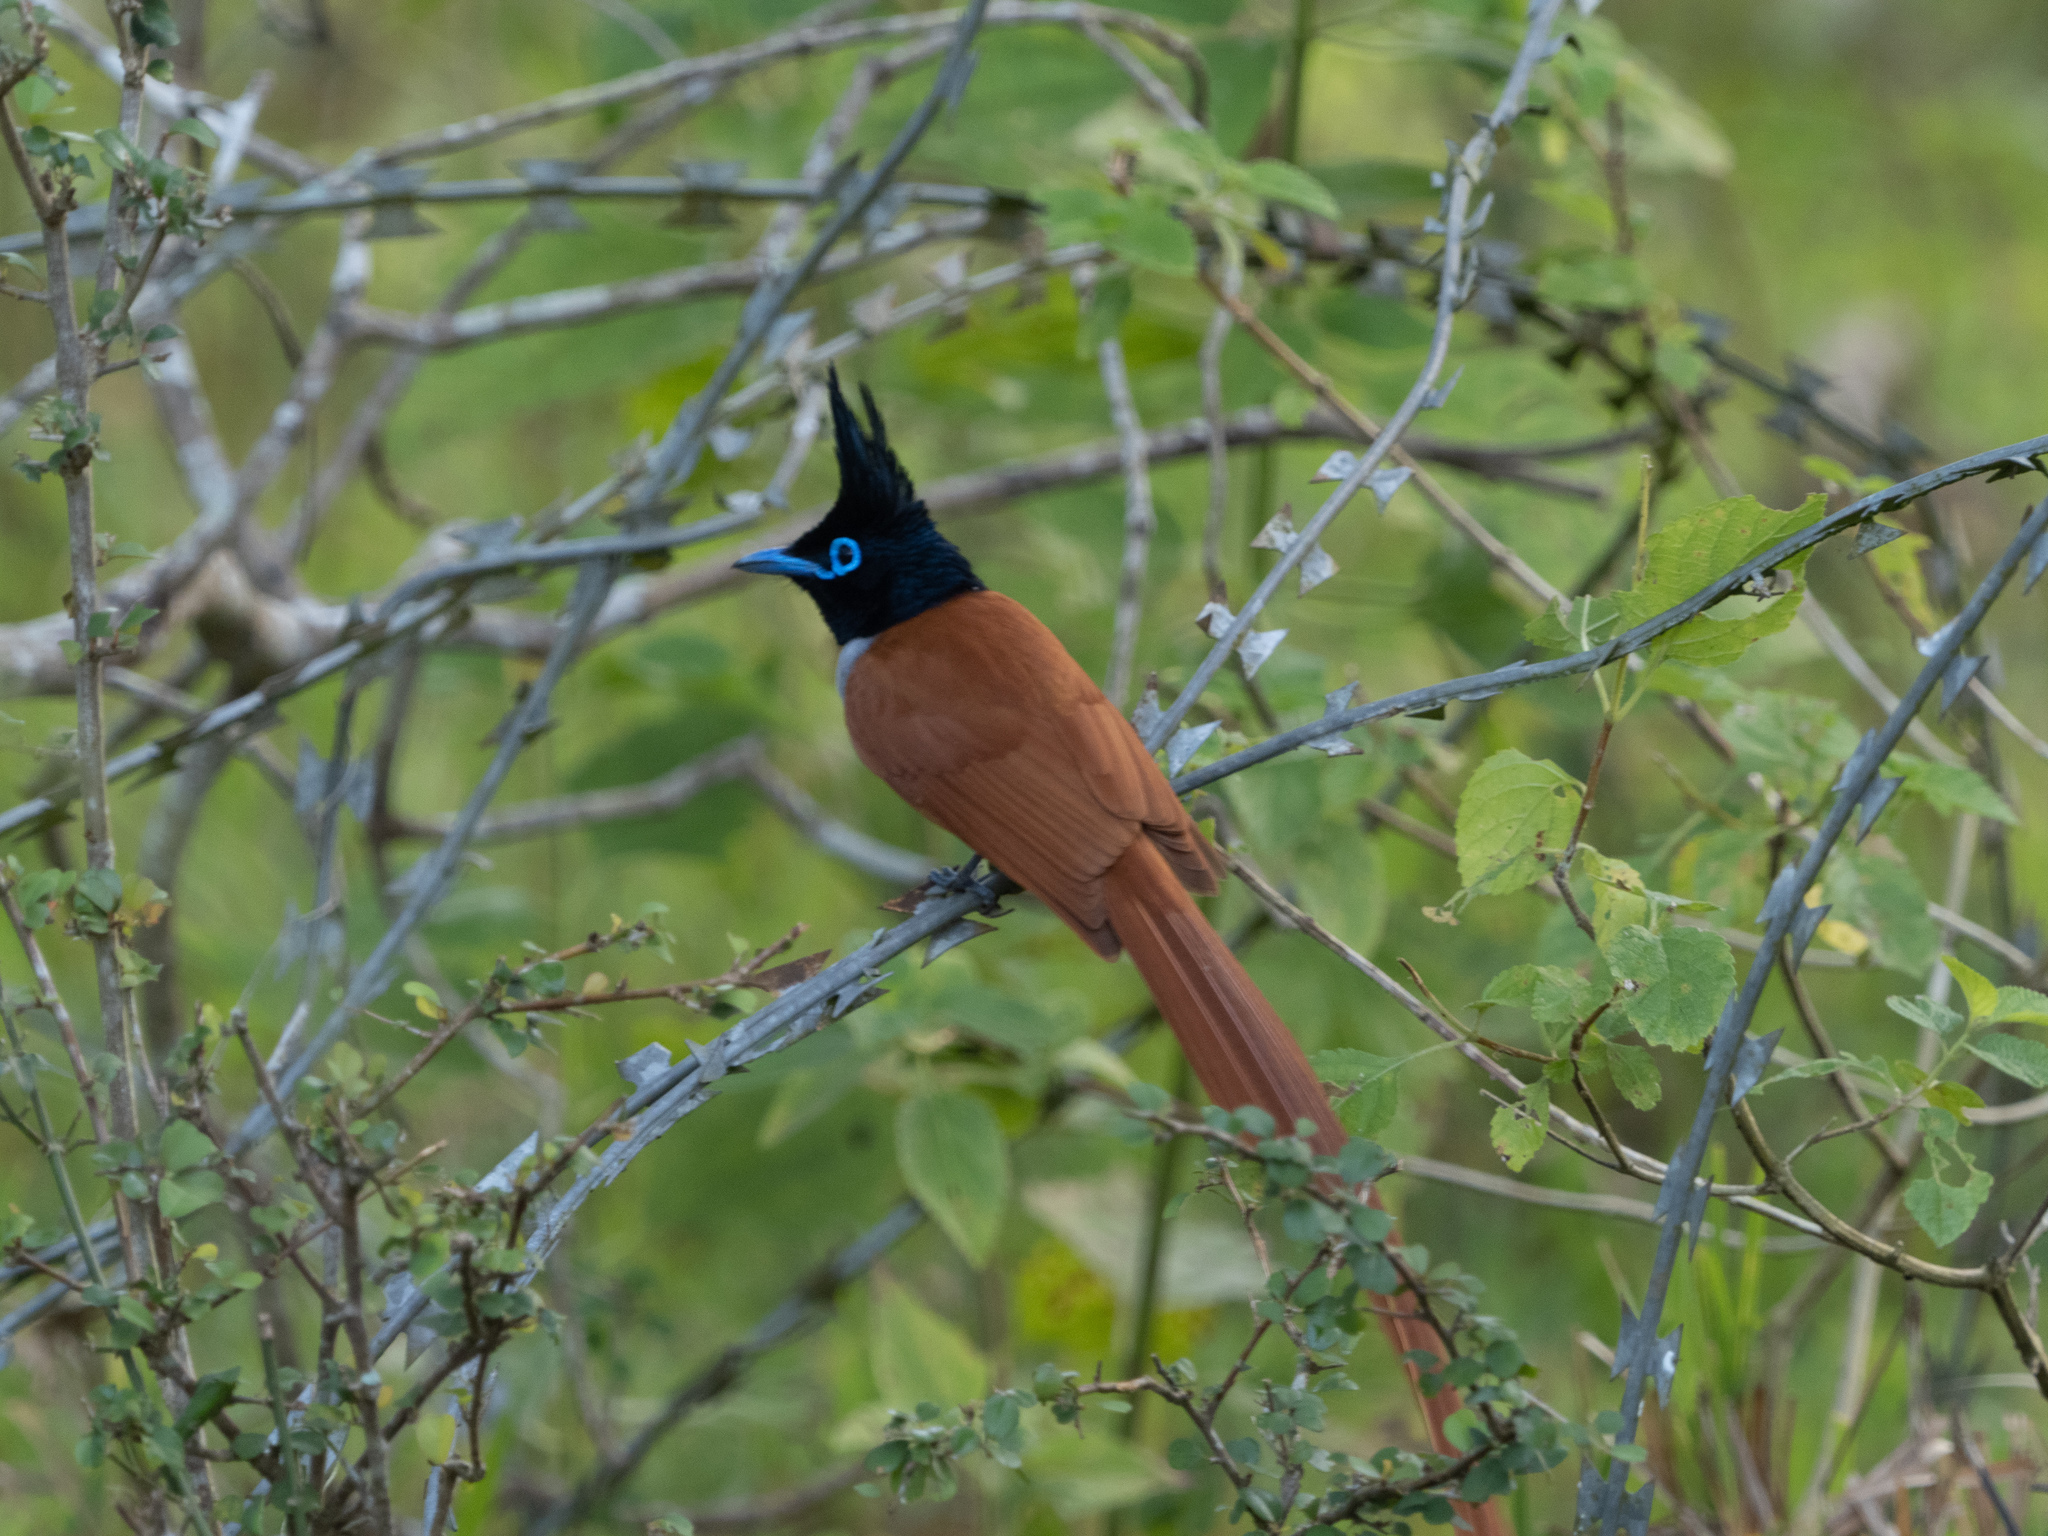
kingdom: Animalia
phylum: Chordata
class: Aves
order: Passeriformes
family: Monarchidae
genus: Terpsiphone
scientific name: Terpsiphone paradisi
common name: Indian paradise flycatcher
